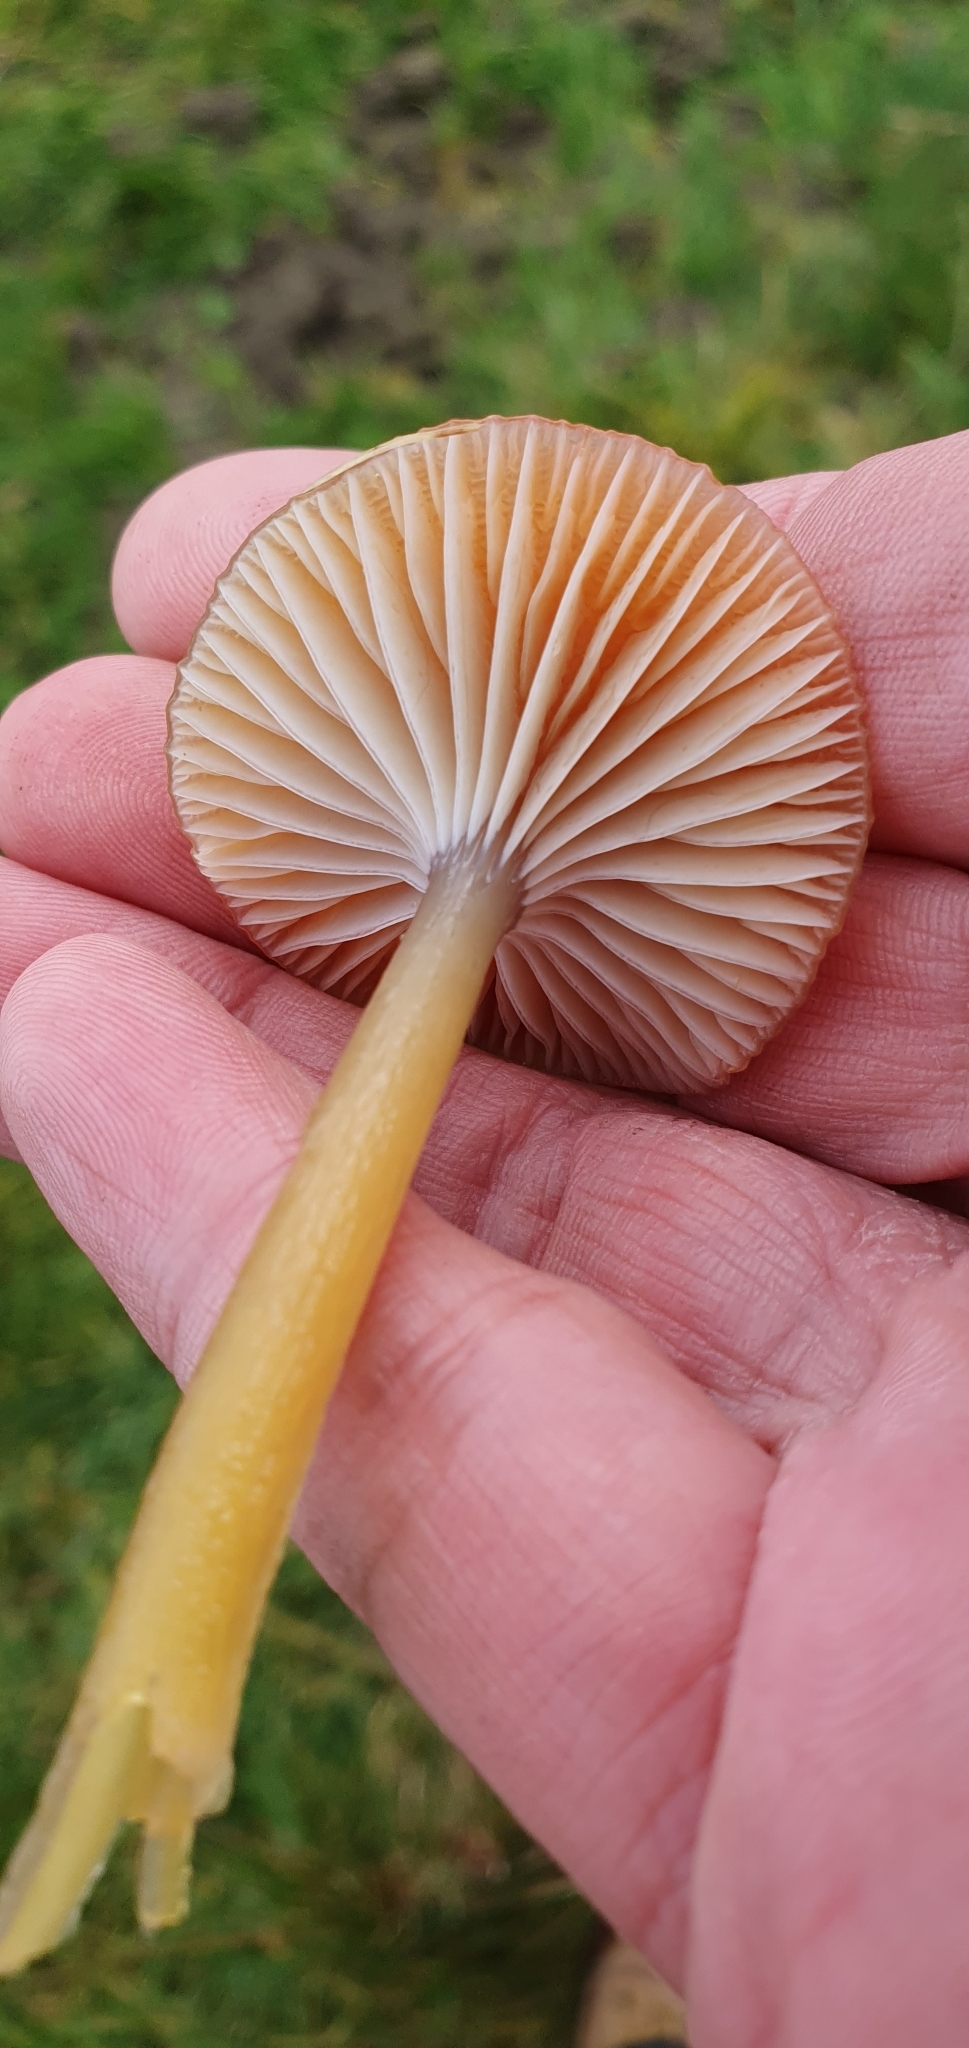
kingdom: Fungi
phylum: Basidiomycota
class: Agaricomycetes
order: Agaricales
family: Hygrophoraceae
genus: Gliophorus
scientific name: Gliophorus laetus
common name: Heath waxcap
